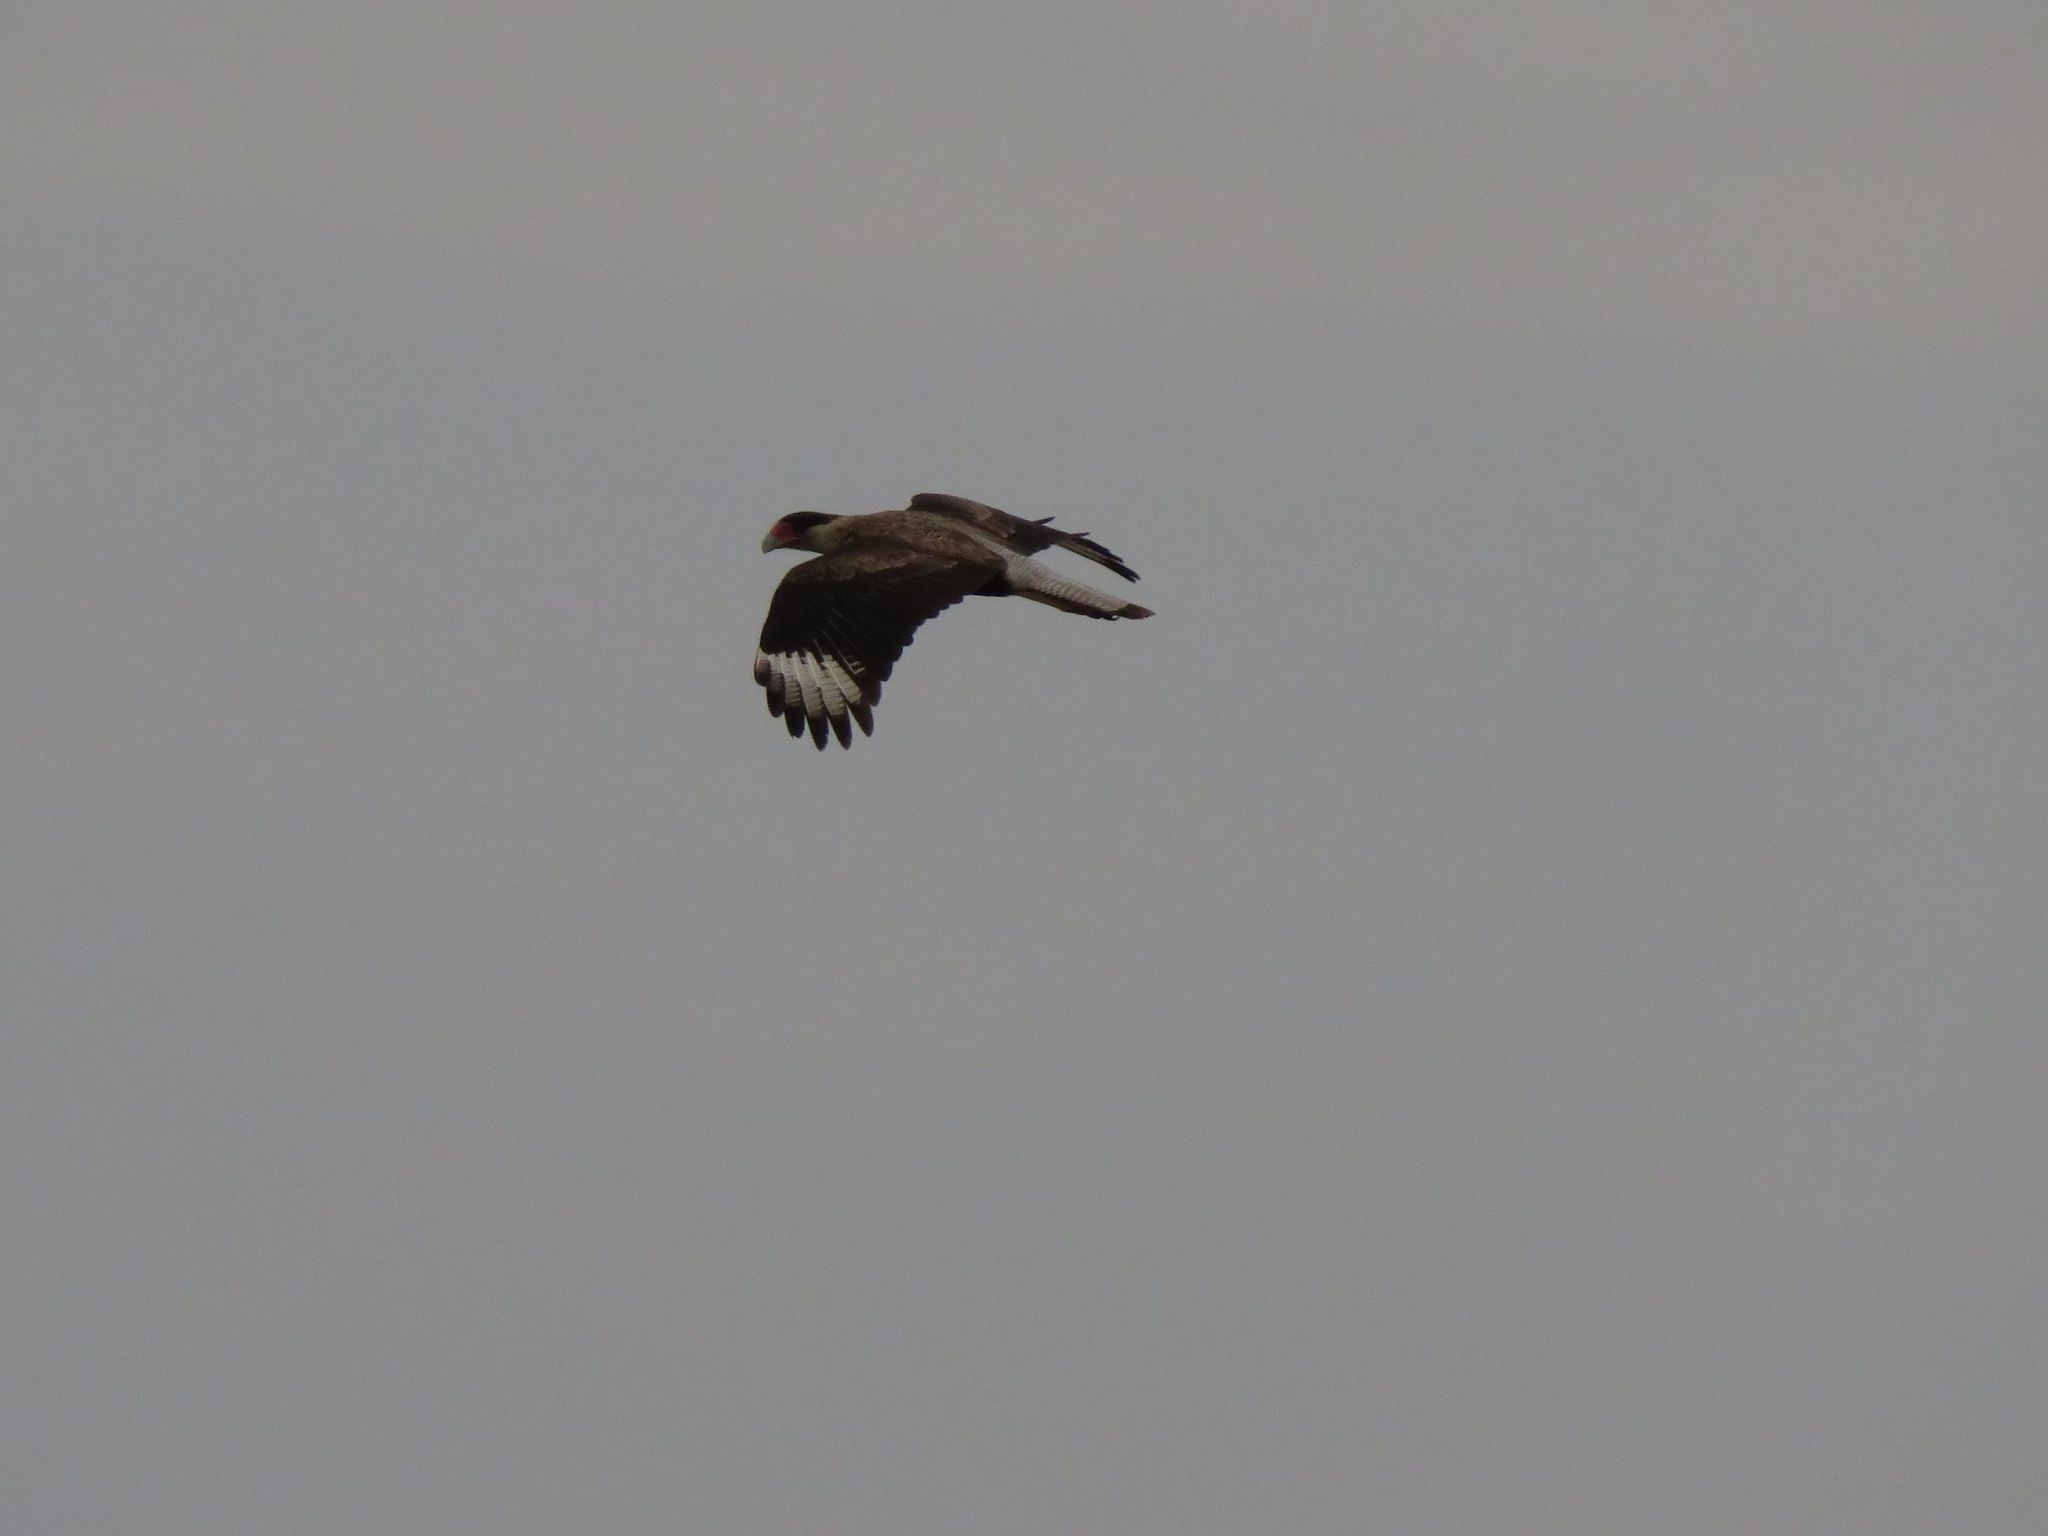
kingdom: Animalia
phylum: Chordata
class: Aves
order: Falconiformes
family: Falconidae
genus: Caracara
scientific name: Caracara plancus
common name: Southern caracara
